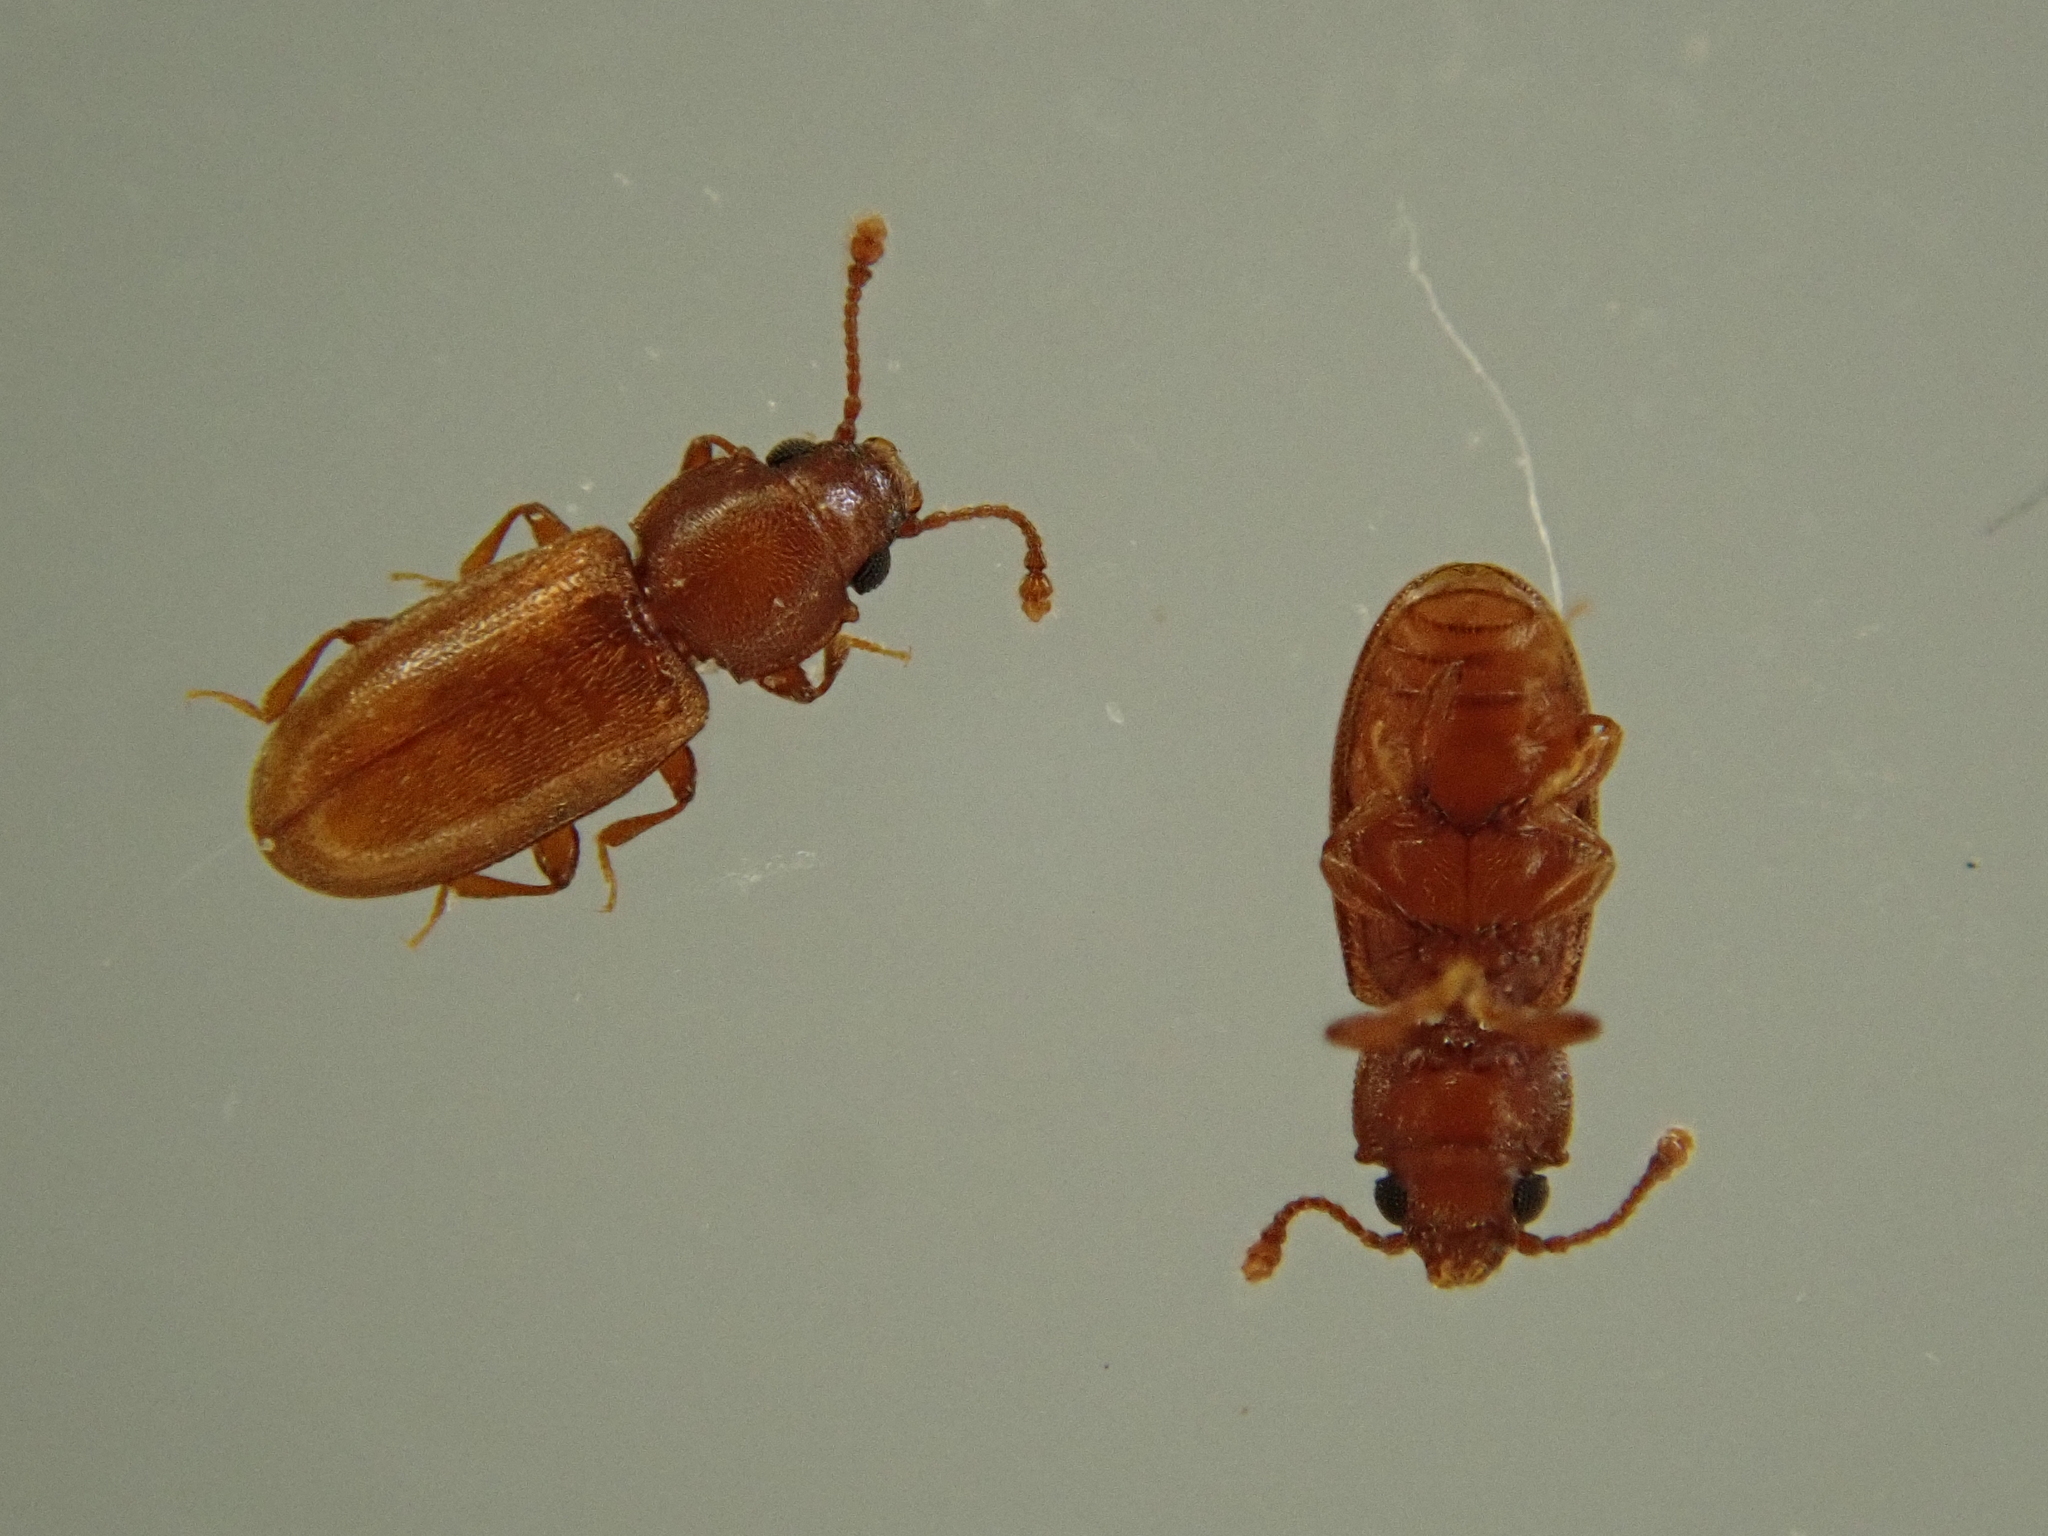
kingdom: Animalia
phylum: Arthropoda
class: Insecta
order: Coleoptera
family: Silvanidae
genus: Ahasverus
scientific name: Ahasverus advena
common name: Foreign grain beetle
